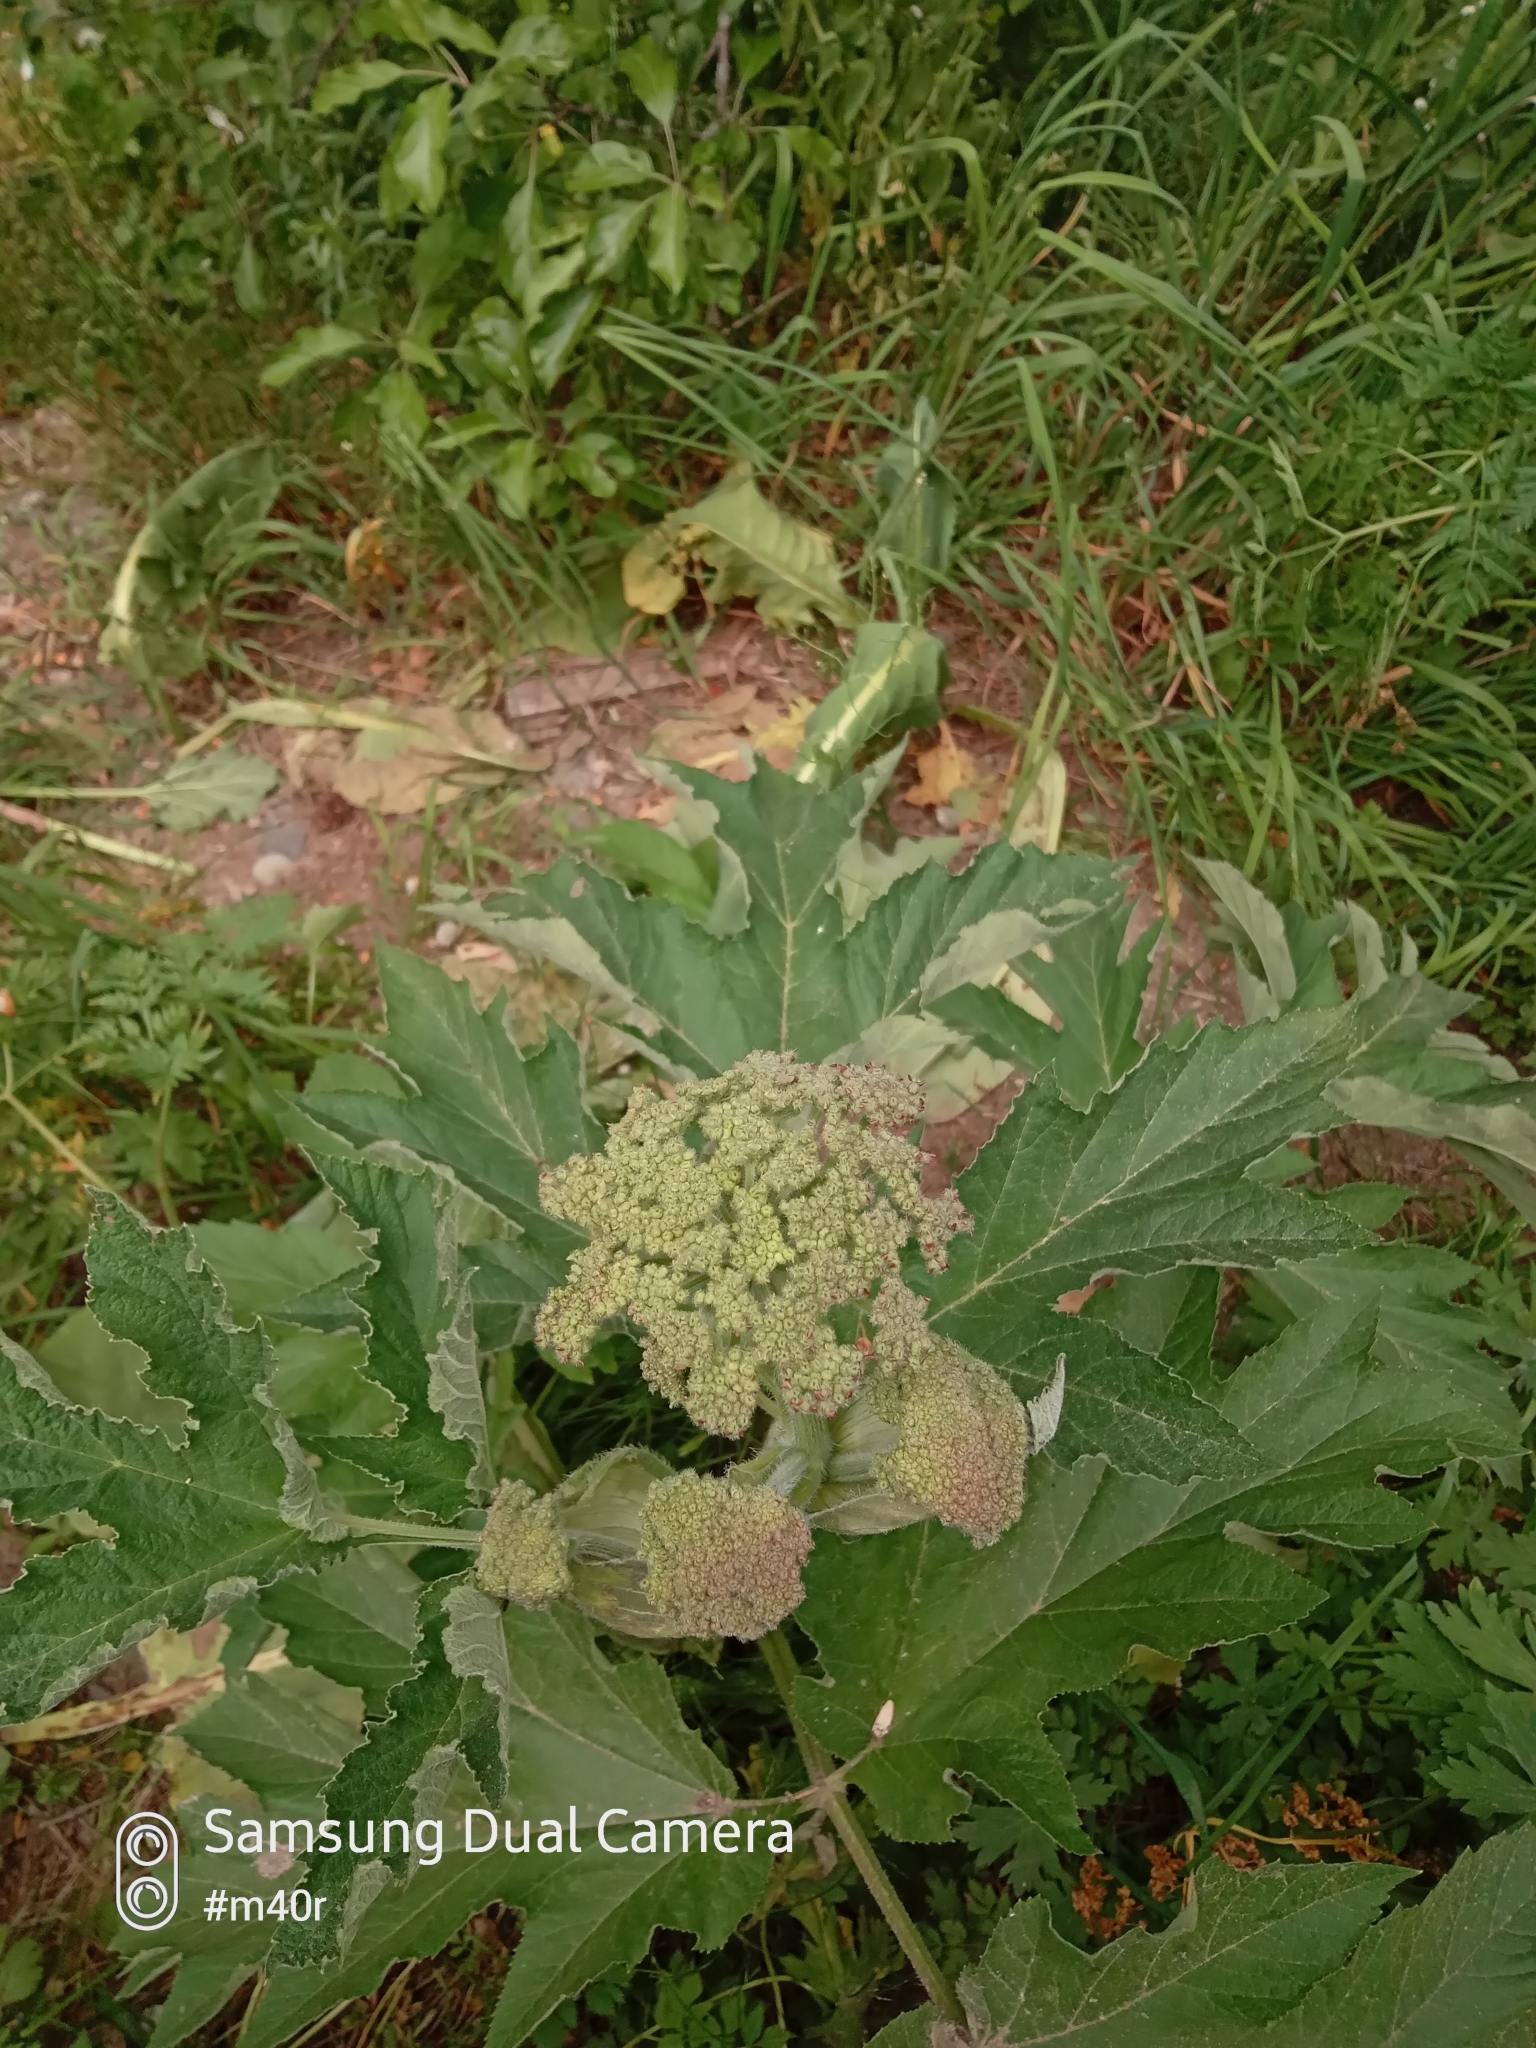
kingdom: Plantae
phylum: Tracheophyta
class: Magnoliopsida
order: Apiales
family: Apiaceae
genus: Heracleum
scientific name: Heracleum dissectum
